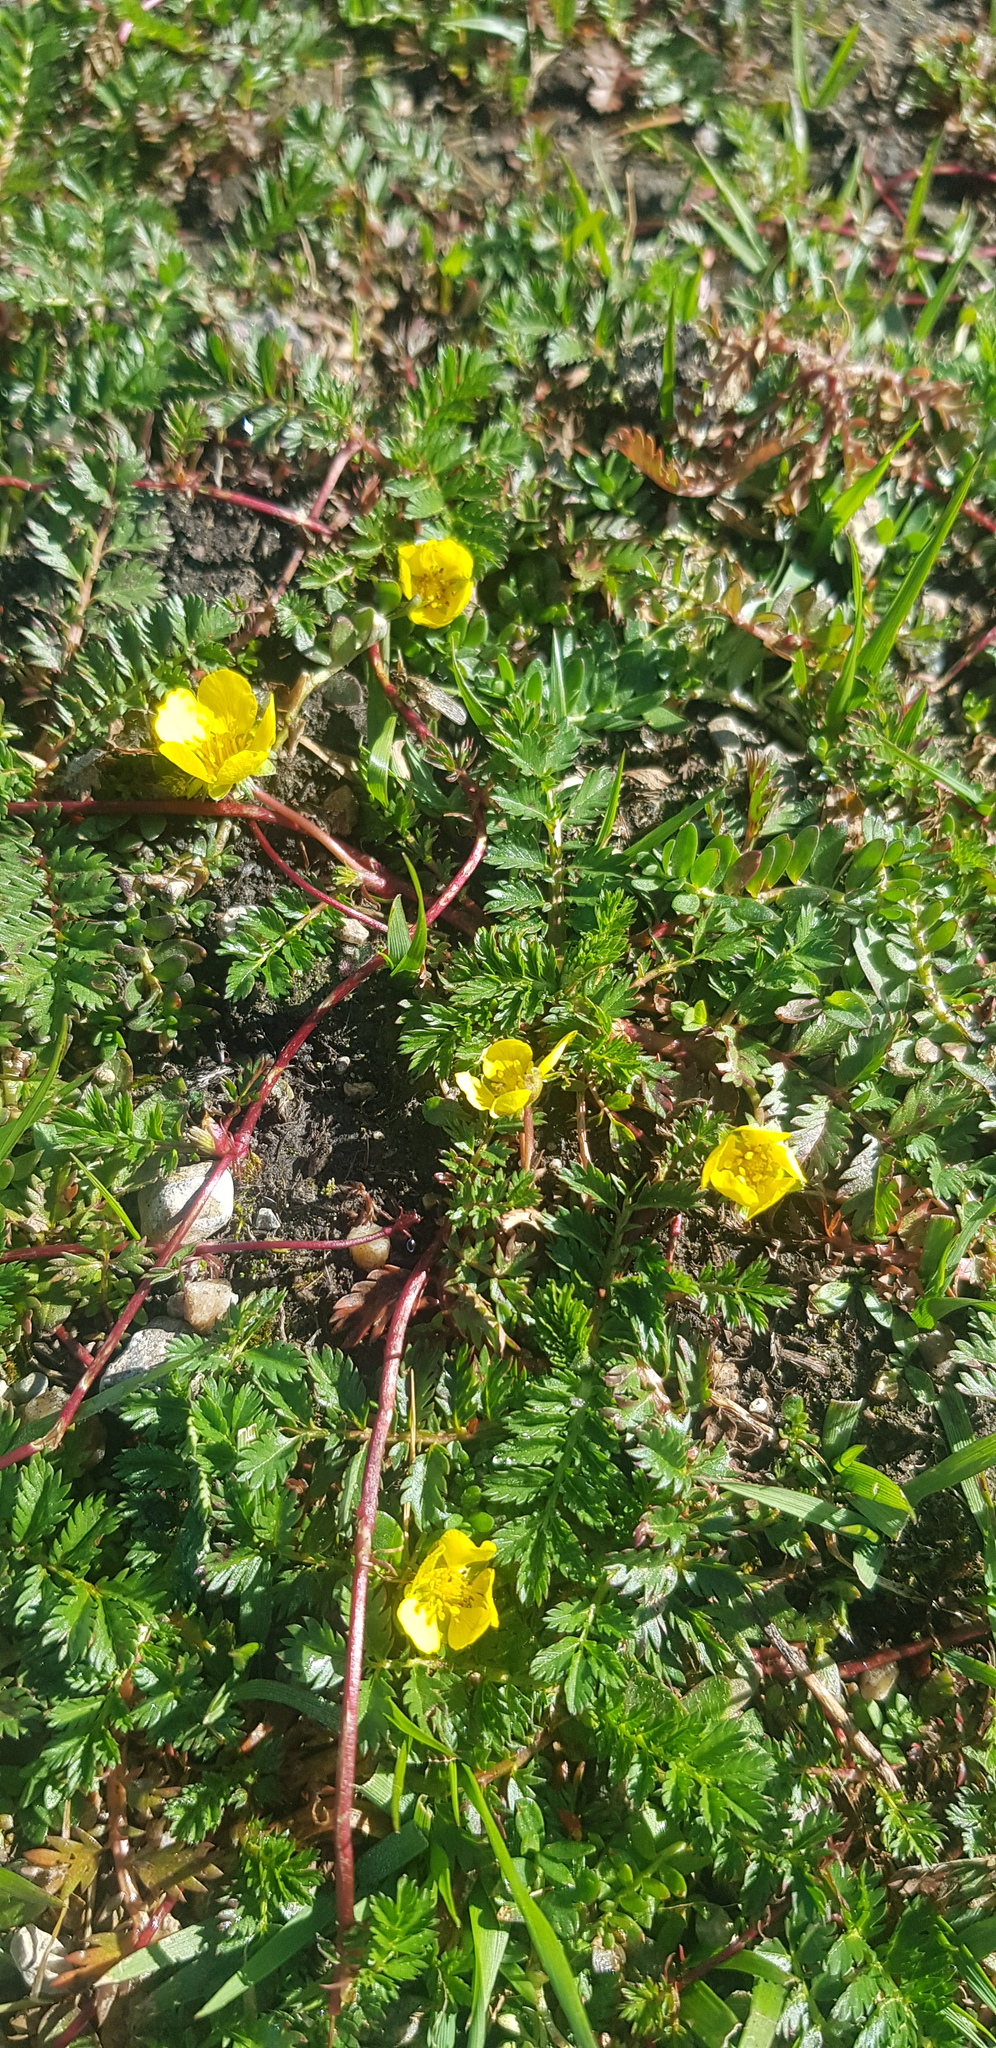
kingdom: Plantae
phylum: Tracheophyta
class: Magnoliopsida
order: Rosales
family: Rosaceae
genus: Argentina
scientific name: Argentina anserina
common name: Common silverweed
